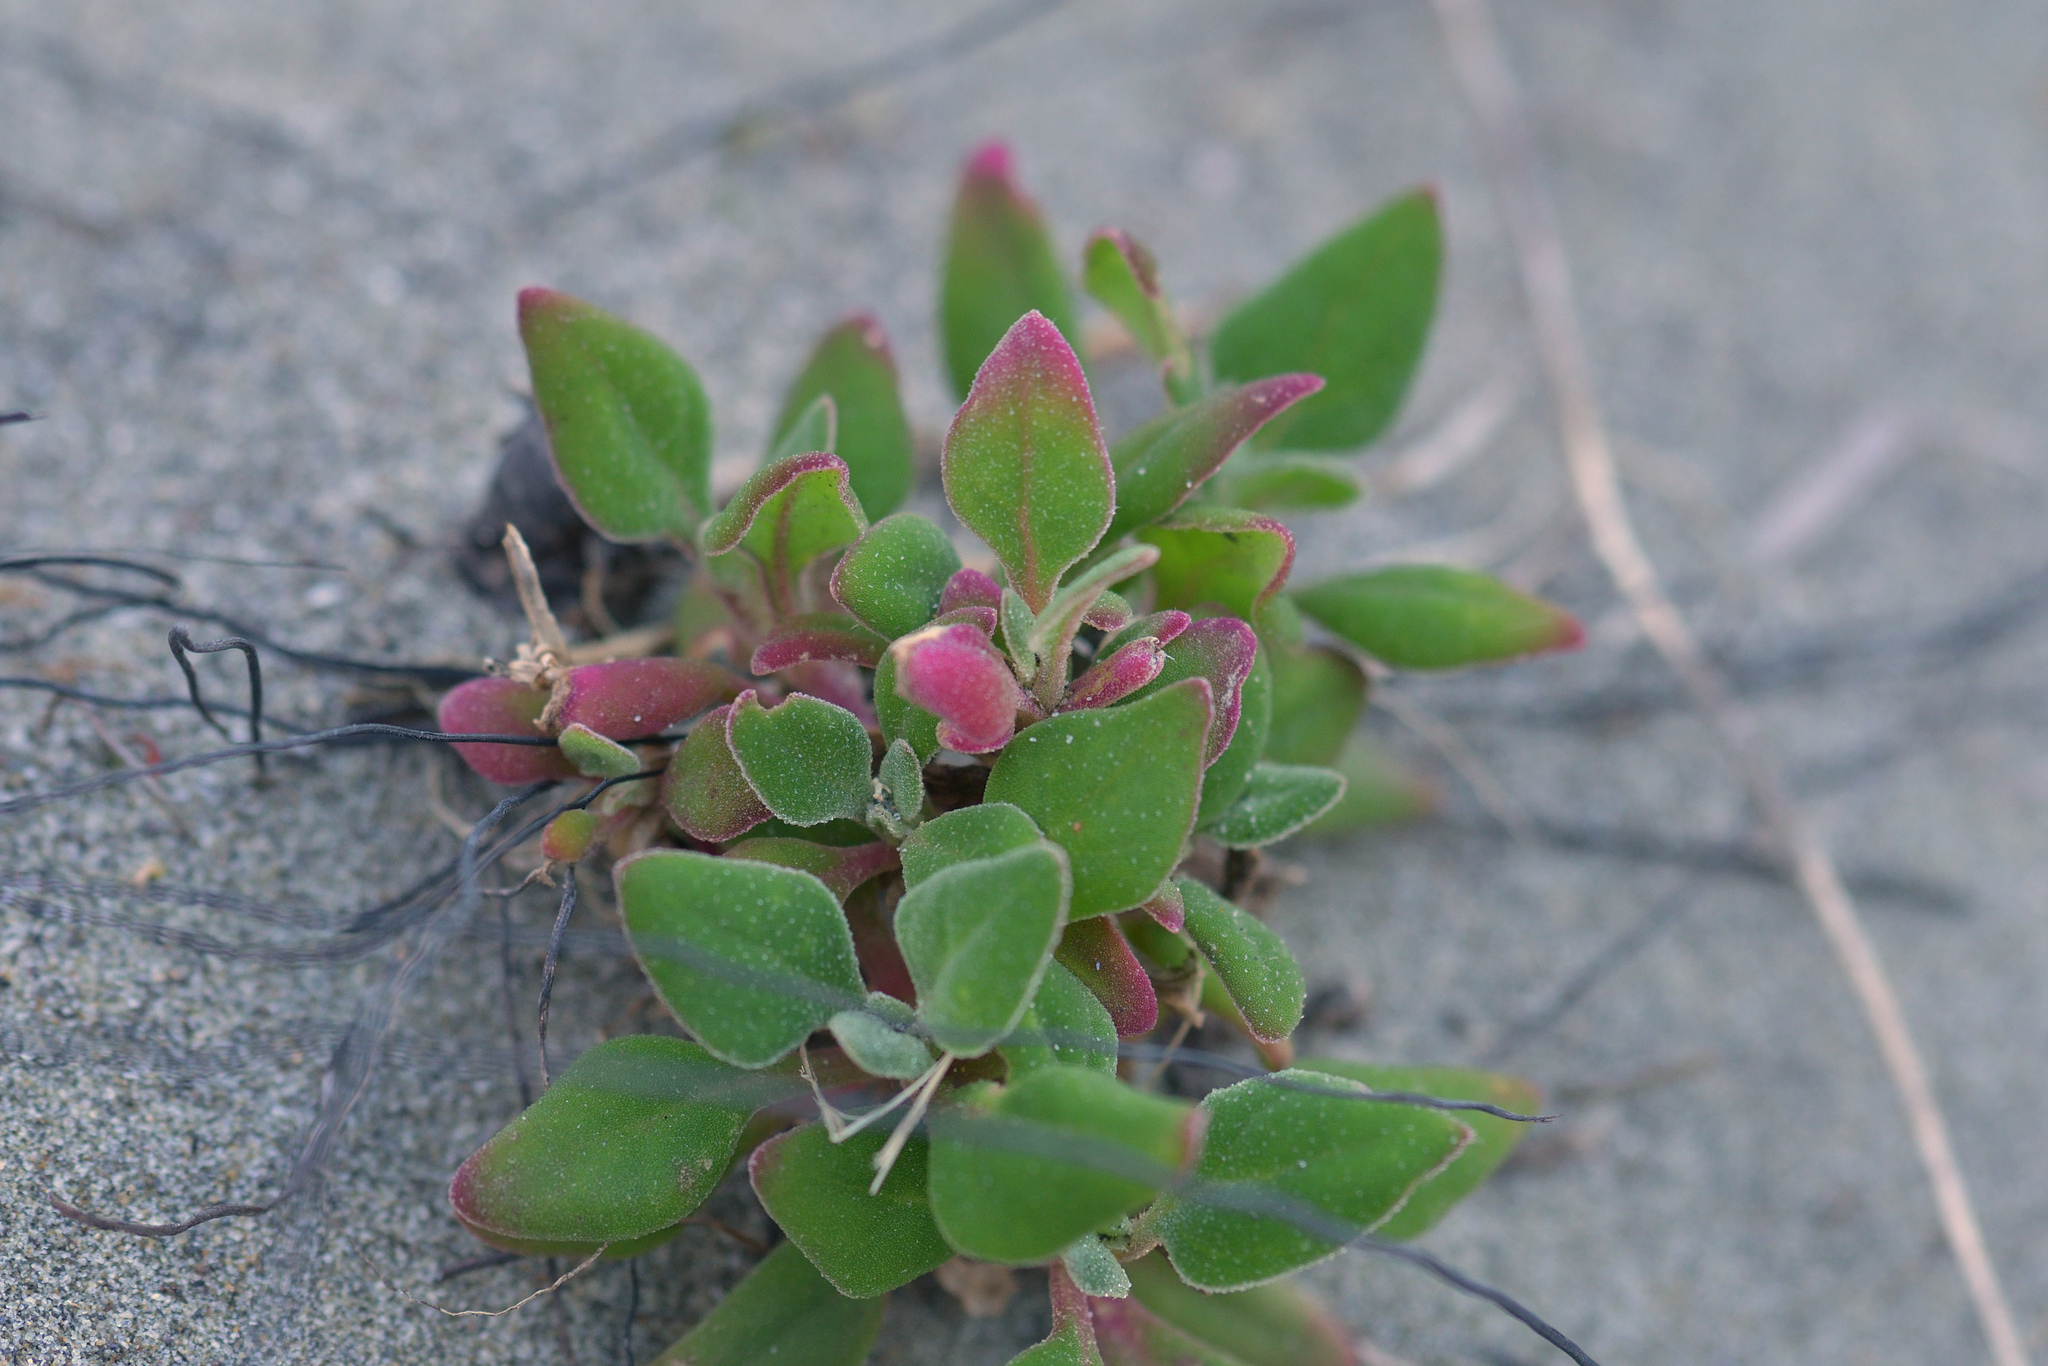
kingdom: Plantae
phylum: Tracheophyta
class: Magnoliopsida
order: Caryophyllales
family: Aizoaceae
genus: Tetragonia
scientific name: Tetragonia implexicoma
